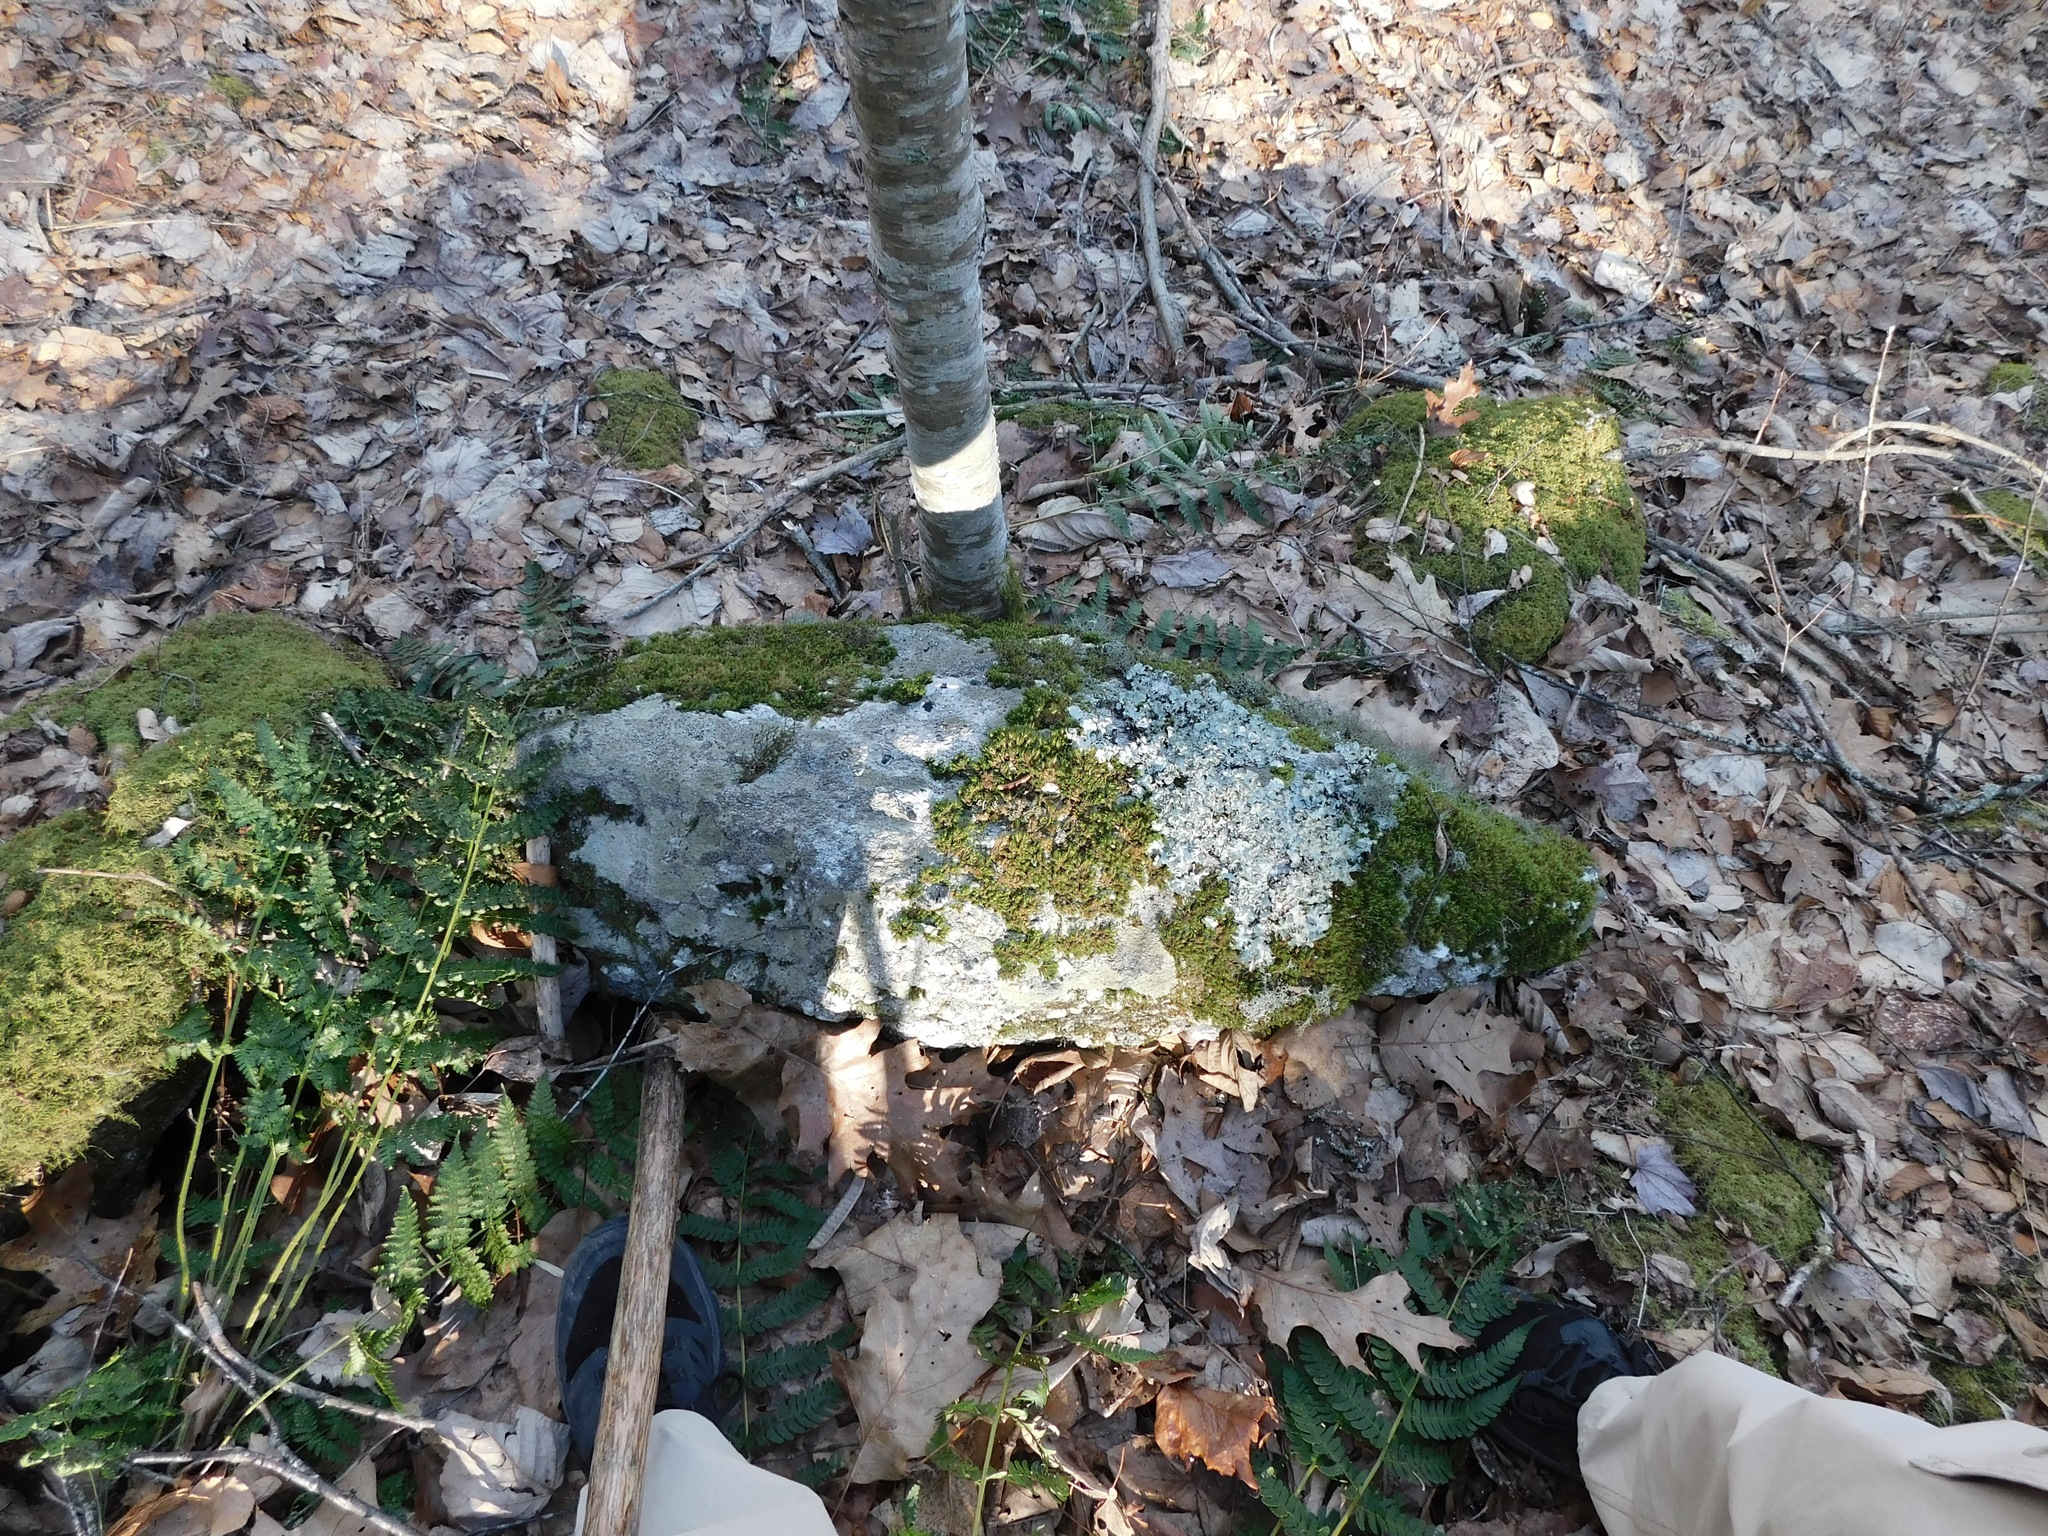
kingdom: Fungi
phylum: Ascomycota
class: Lecanoromycetes
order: Lecanorales
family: Parmeliaceae
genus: Cetrelia
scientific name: Cetrelia chicitae
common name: Chicita's sea storm lichen
